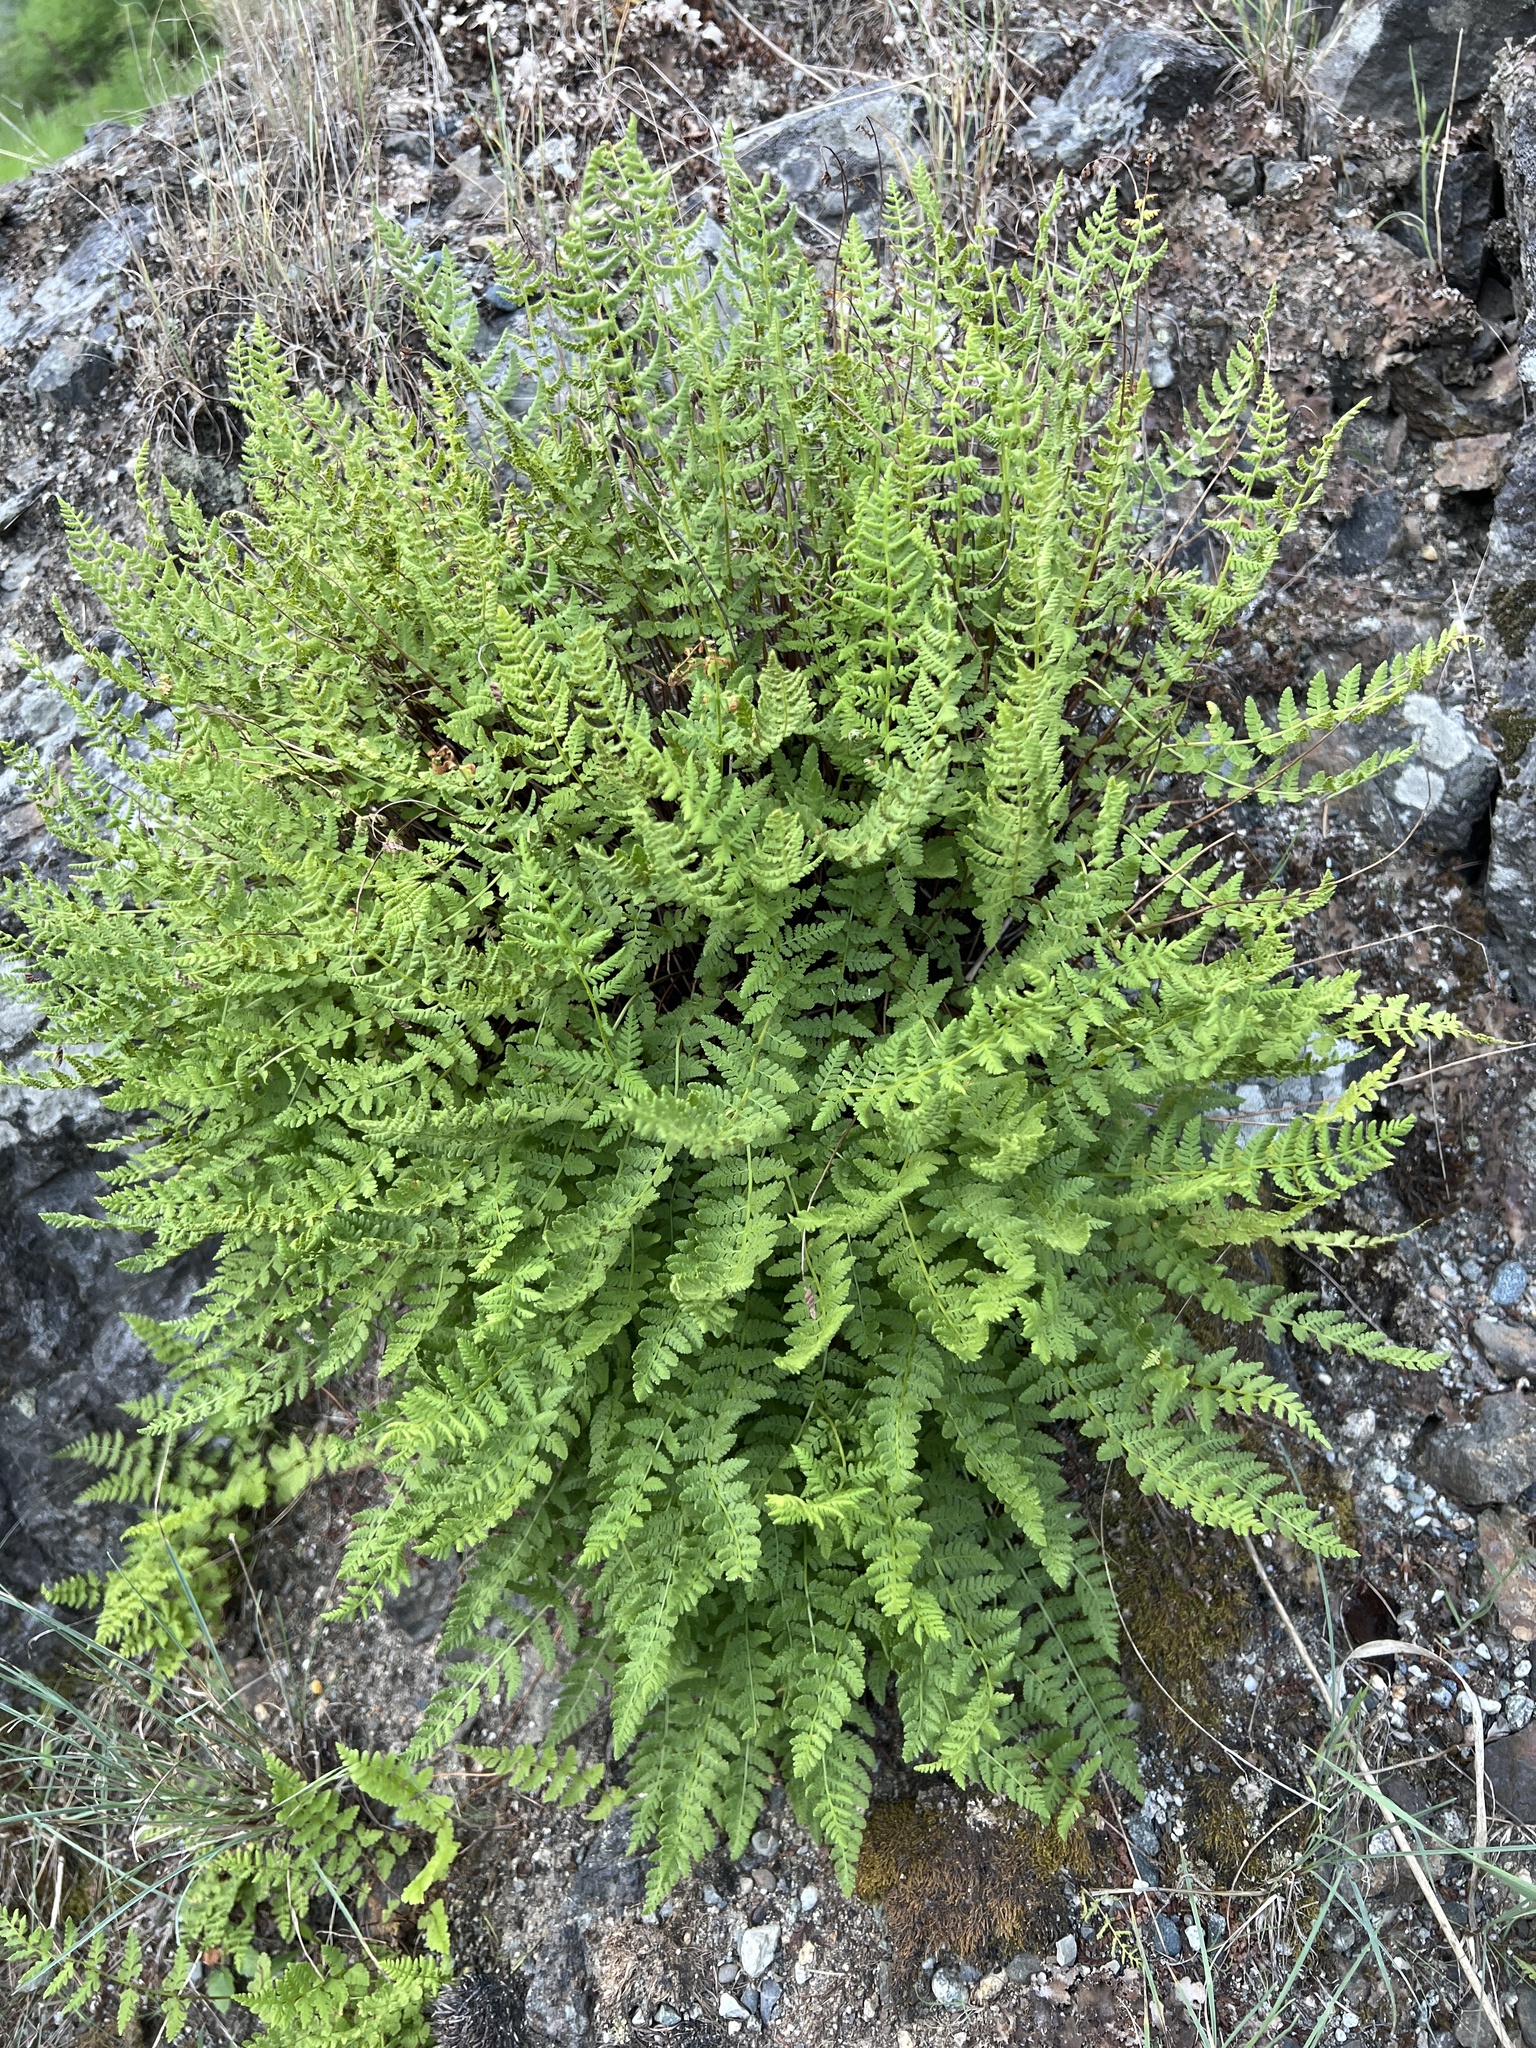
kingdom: Plantae
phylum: Tracheophyta
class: Polypodiopsida
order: Polypodiales
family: Woodsiaceae
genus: Physematium
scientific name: Physematium scopulinum
